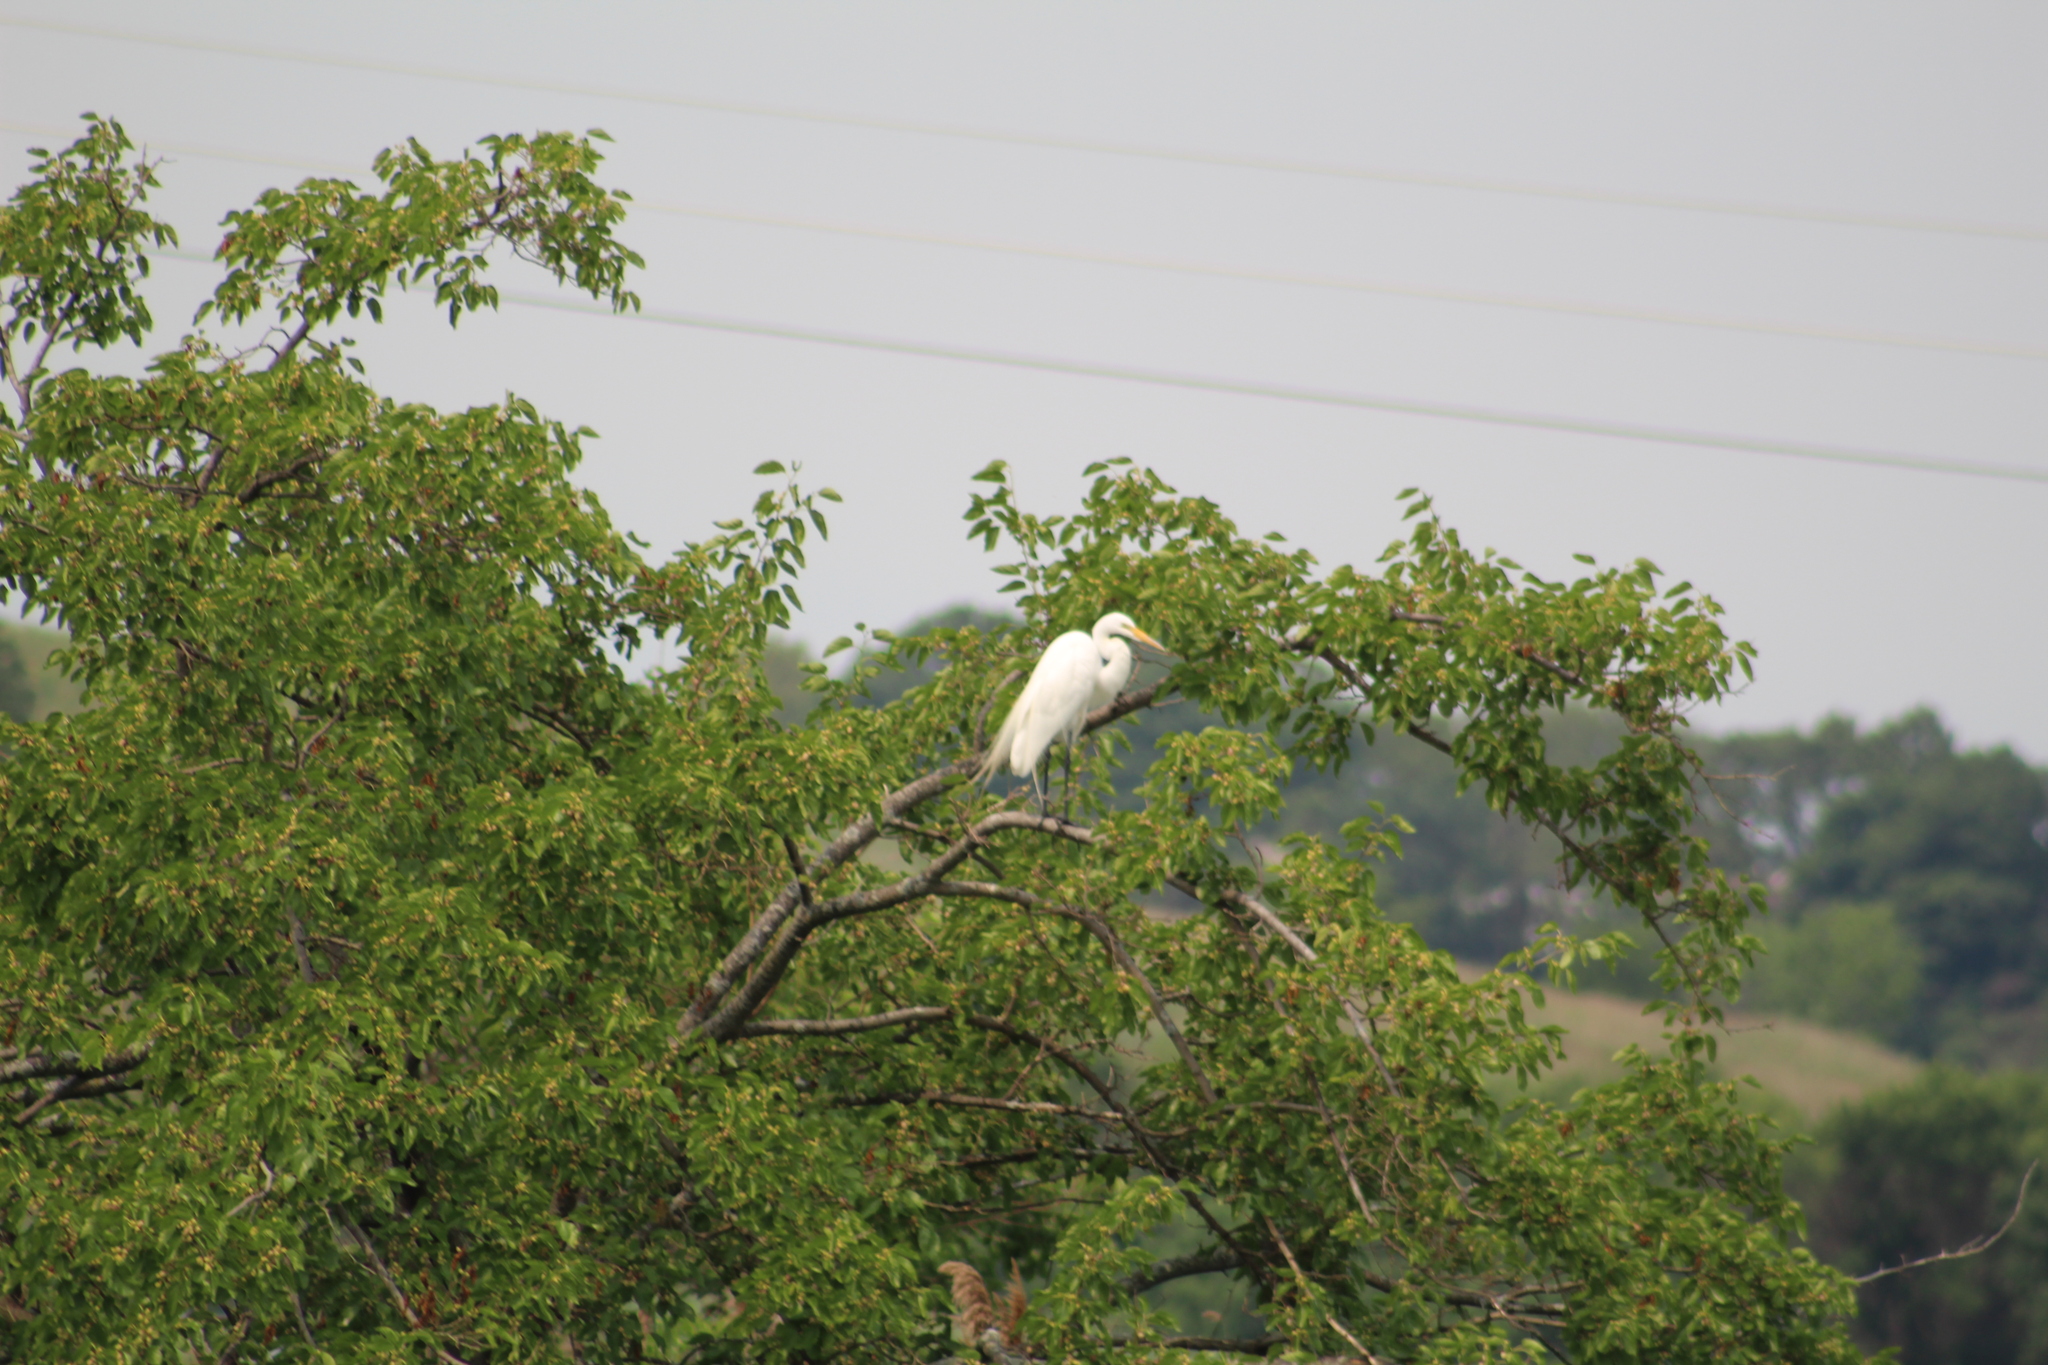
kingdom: Animalia
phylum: Chordata
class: Aves
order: Pelecaniformes
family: Ardeidae
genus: Ardea
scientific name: Ardea alba
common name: Great egret
